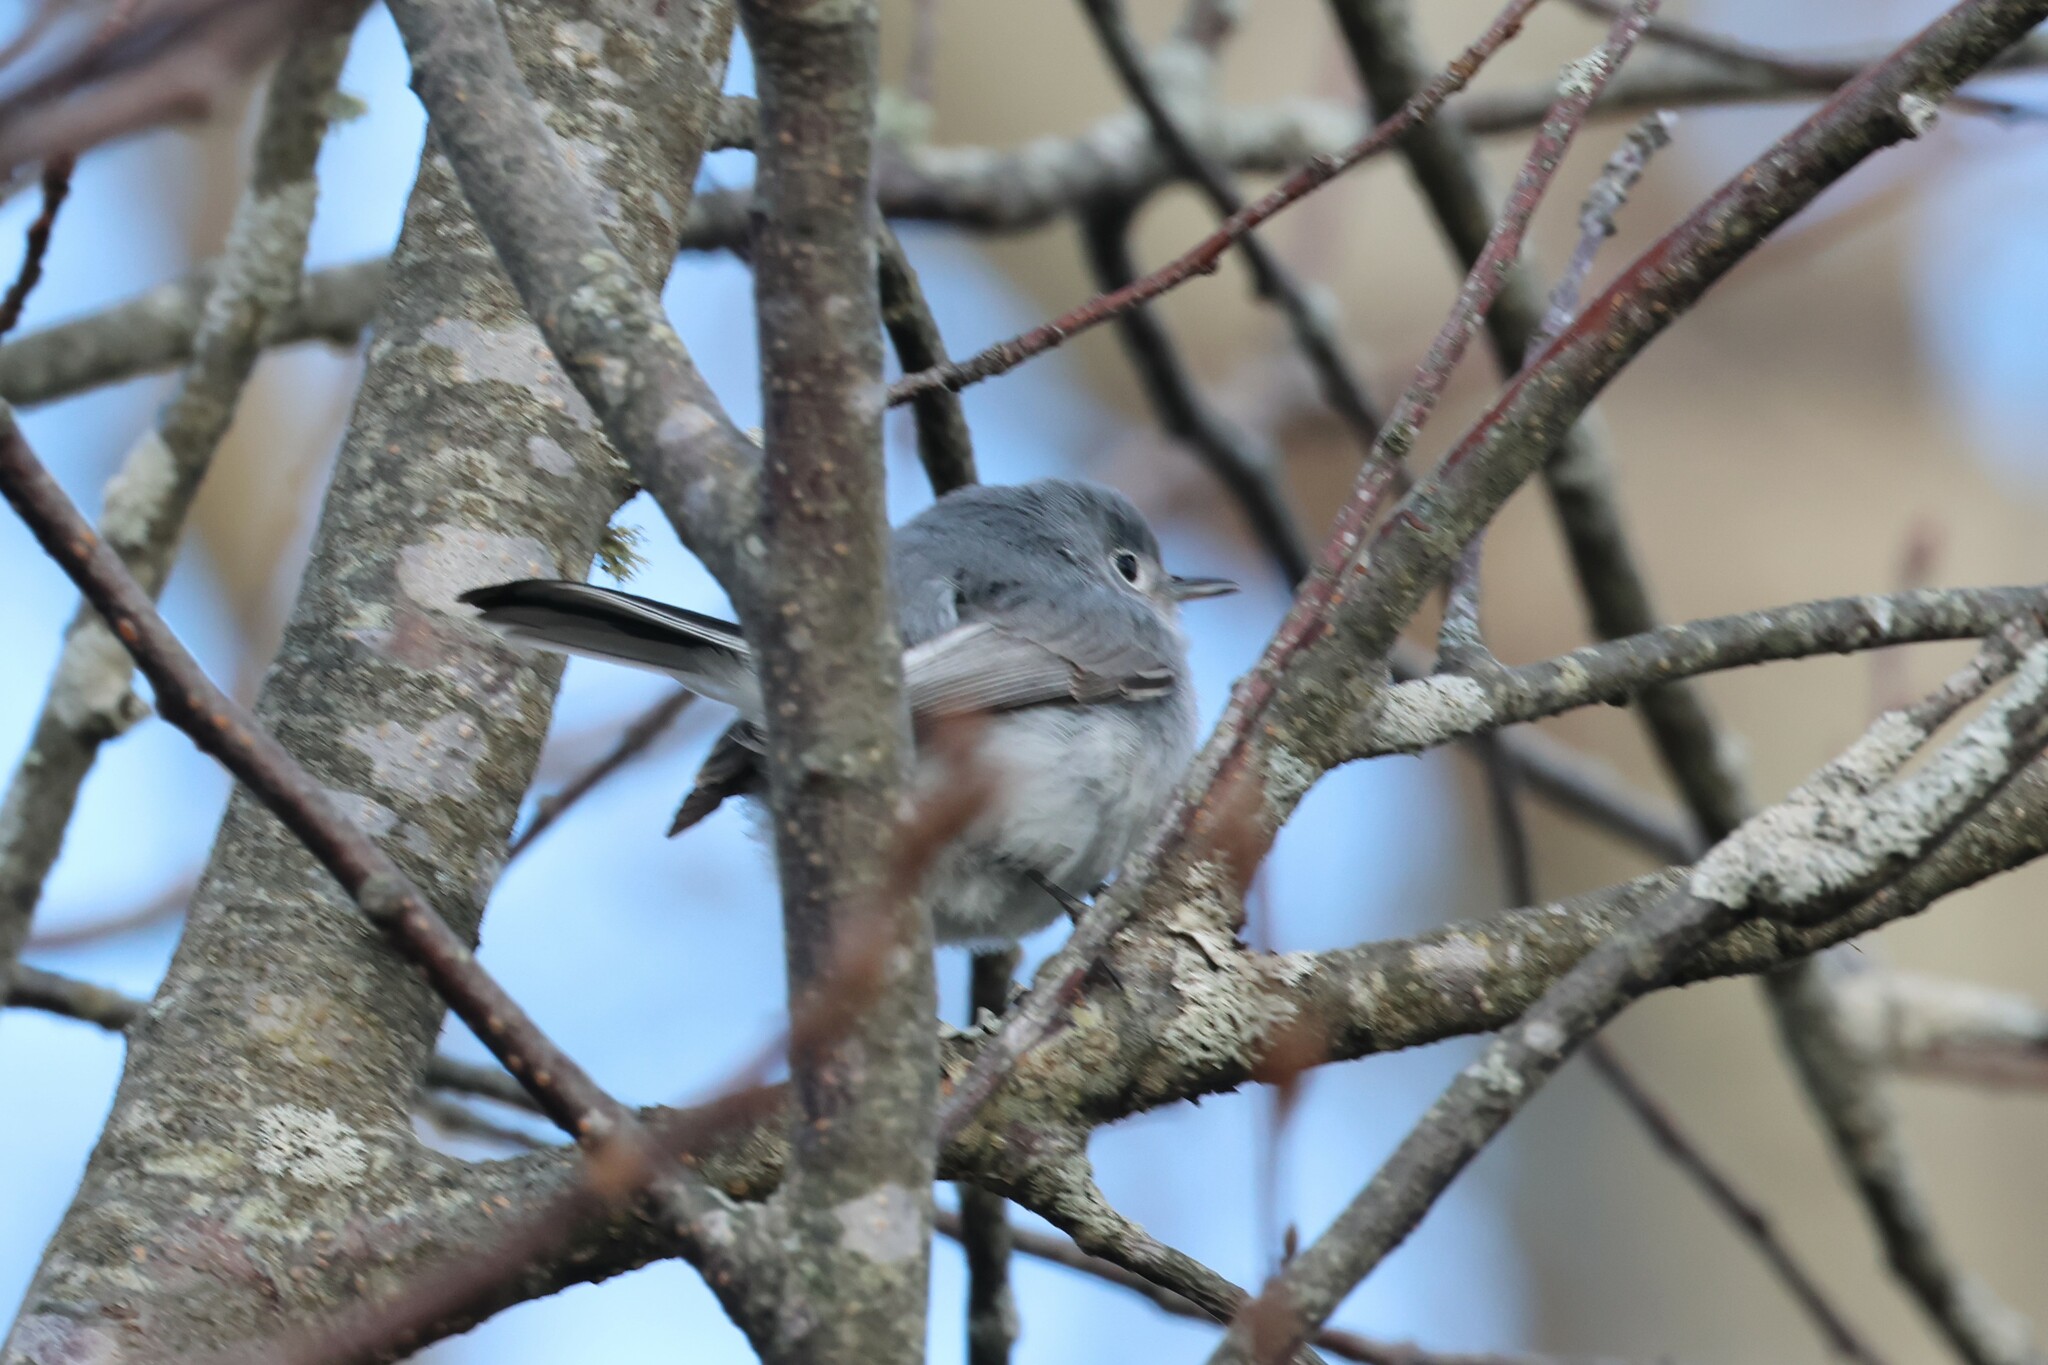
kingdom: Animalia
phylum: Chordata
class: Aves
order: Passeriformes
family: Polioptilidae
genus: Polioptila
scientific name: Polioptila caerulea
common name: Blue-gray gnatcatcher
